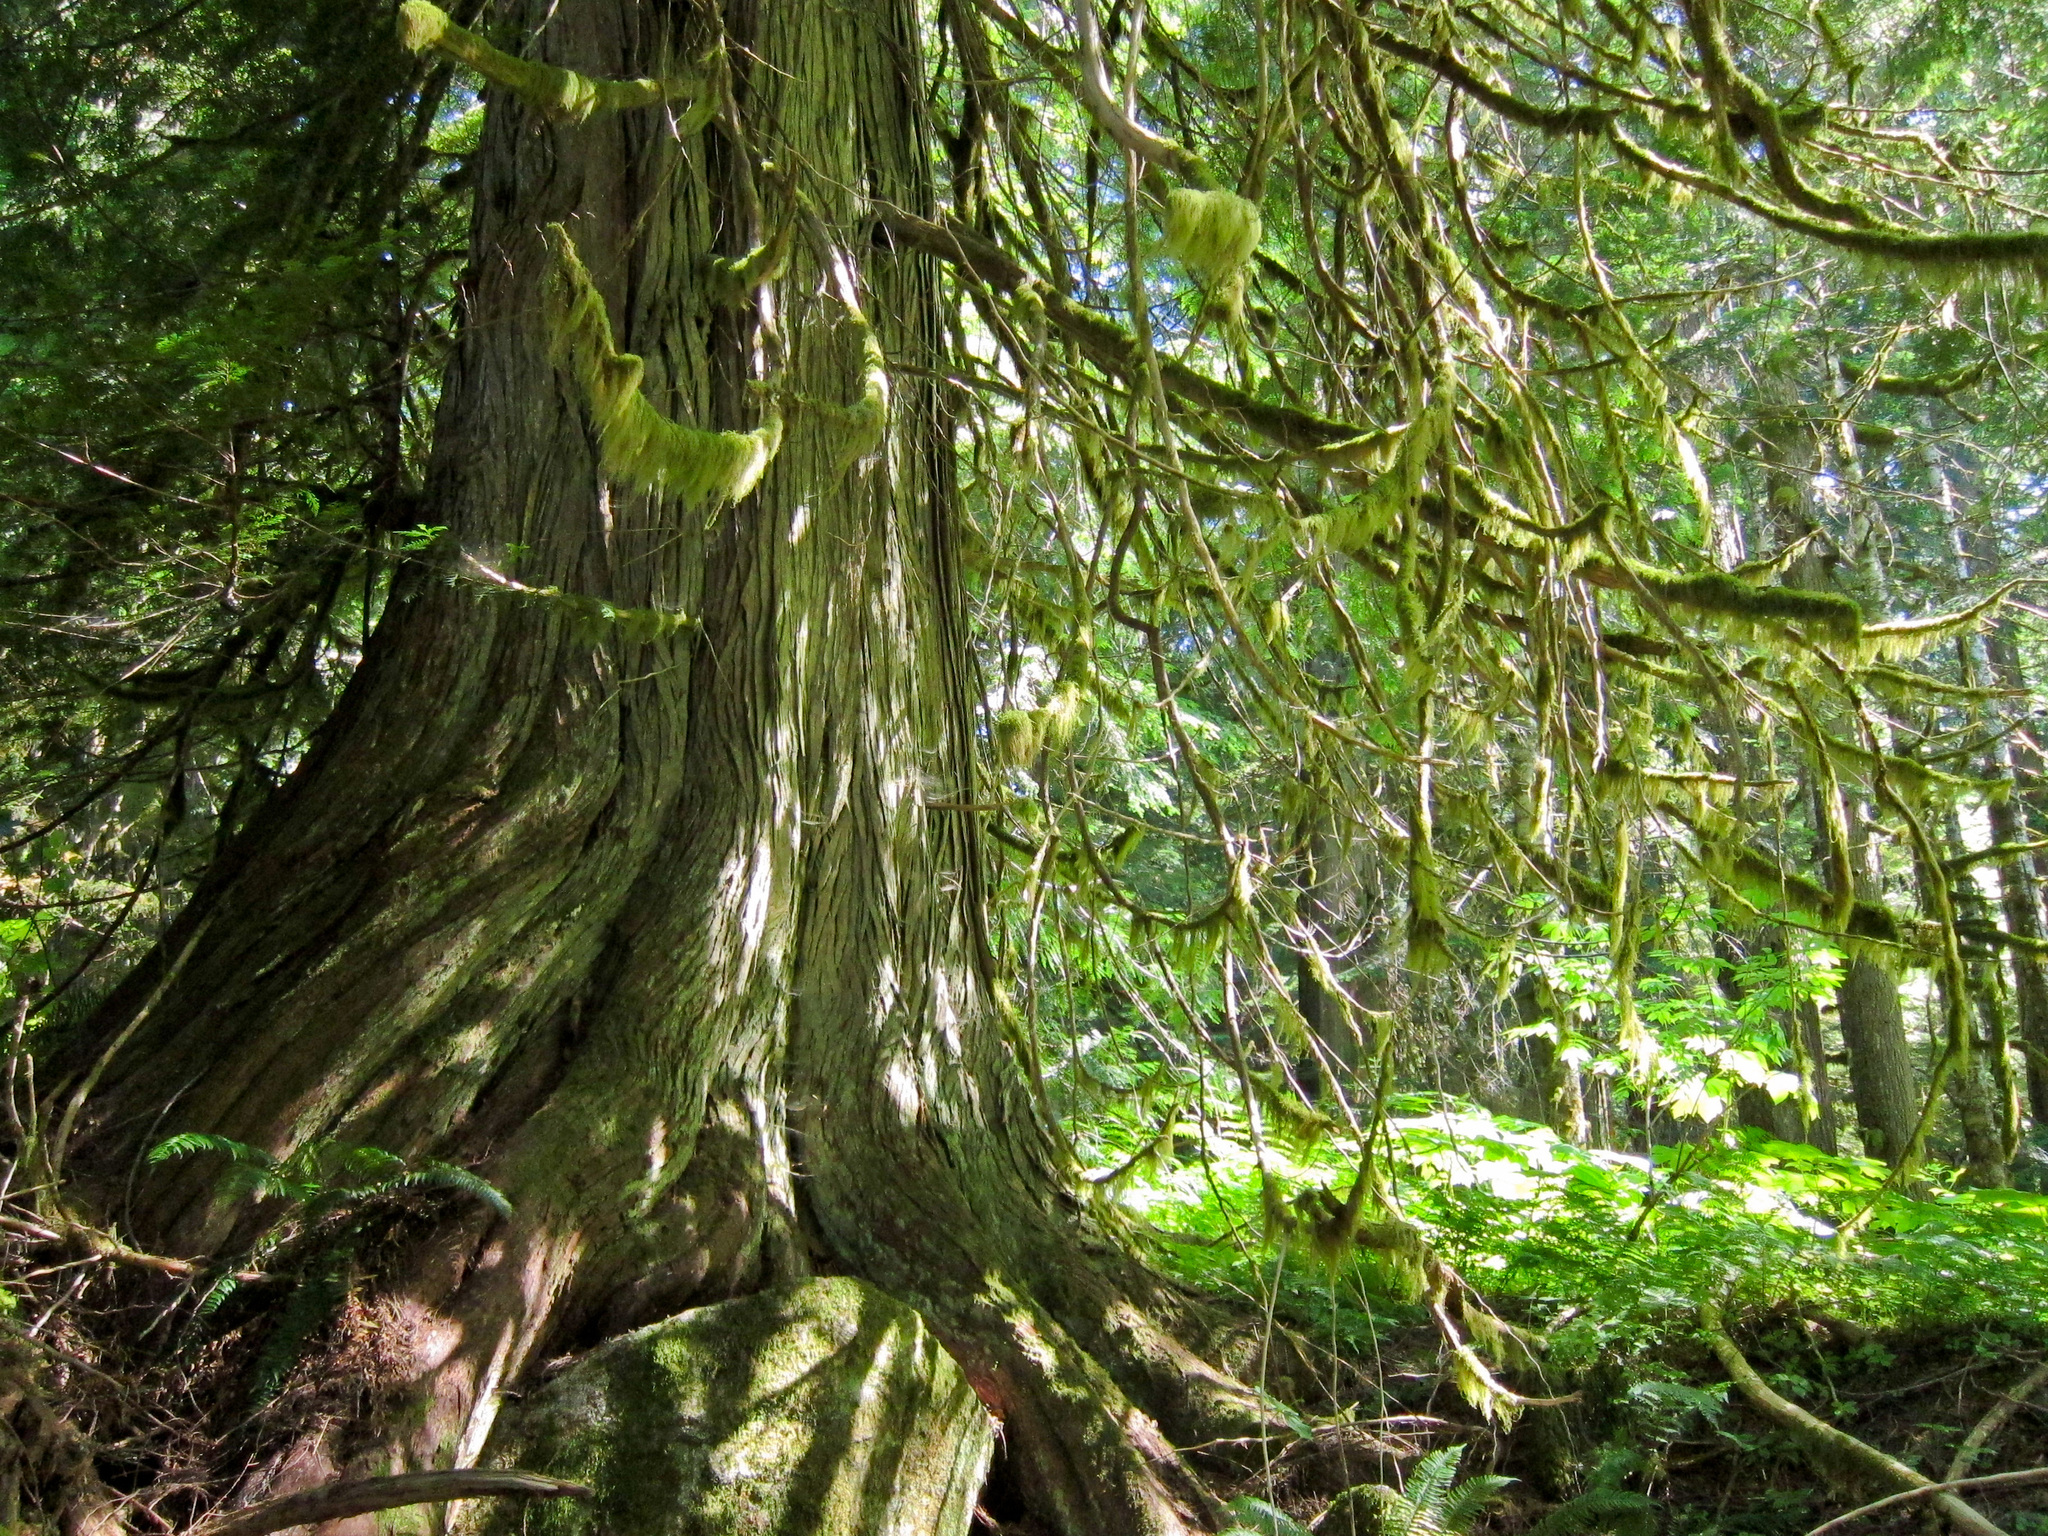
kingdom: Plantae
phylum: Tracheophyta
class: Pinopsida
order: Pinales
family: Cupressaceae
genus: Thuja
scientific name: Thuja plicata
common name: Western red-cedar
